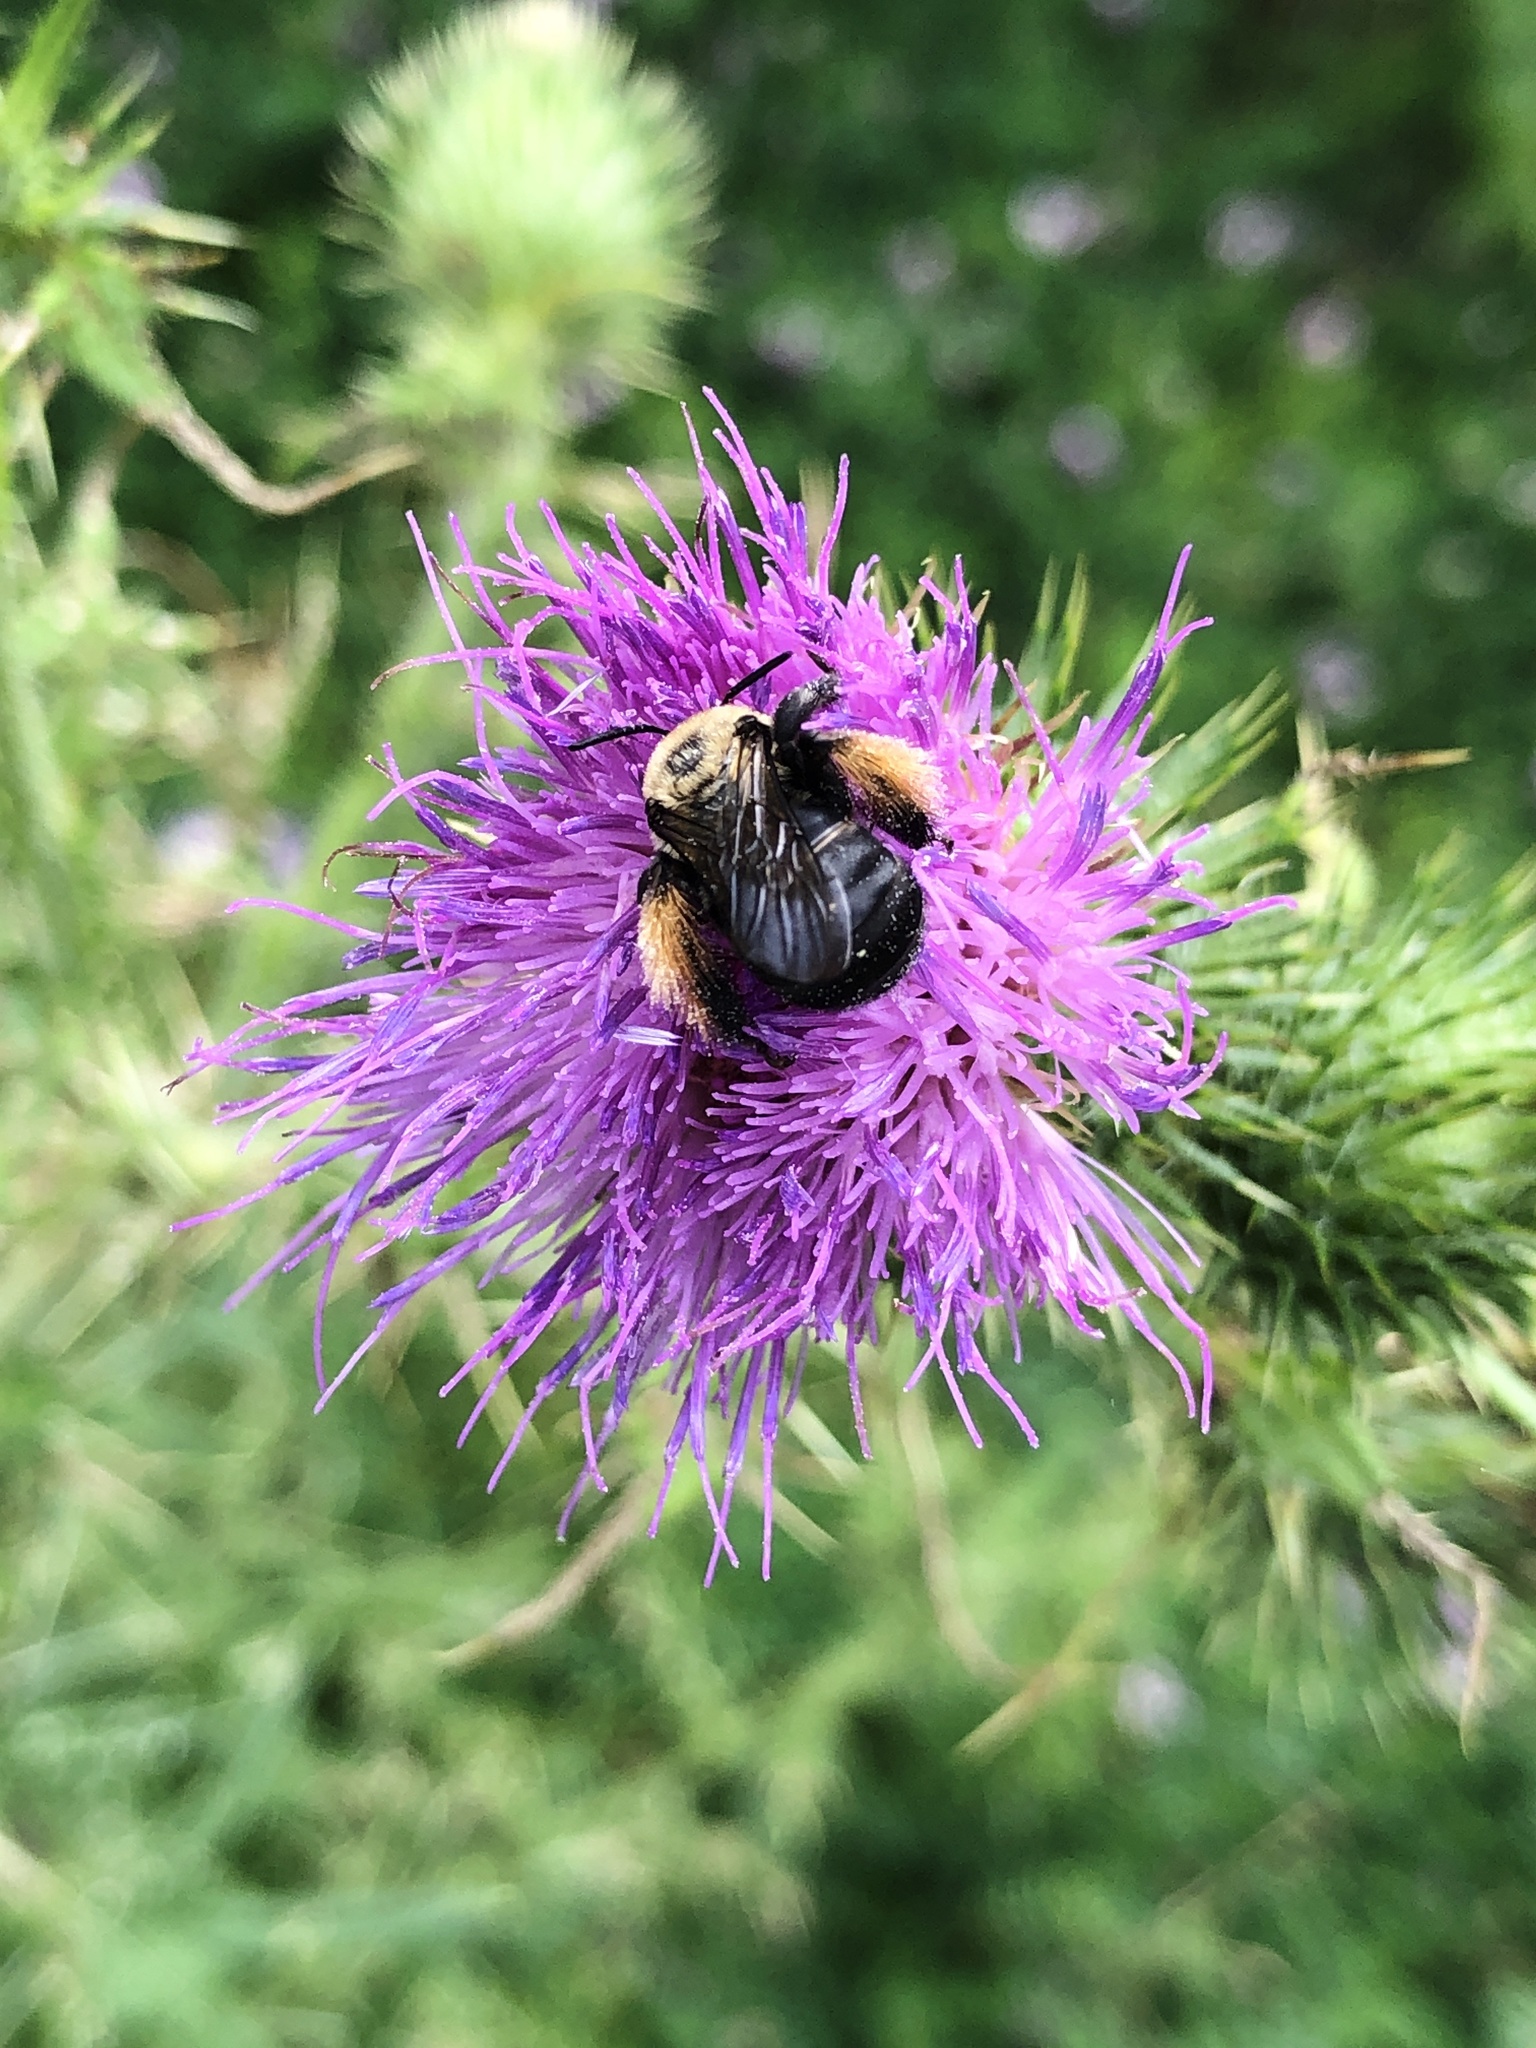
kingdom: Animalia
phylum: Arthropoda
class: Insecta
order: Hymenoptera
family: Apidae
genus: Melissodes
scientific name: Melissodes desponsus
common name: Thistle long-horned bee
